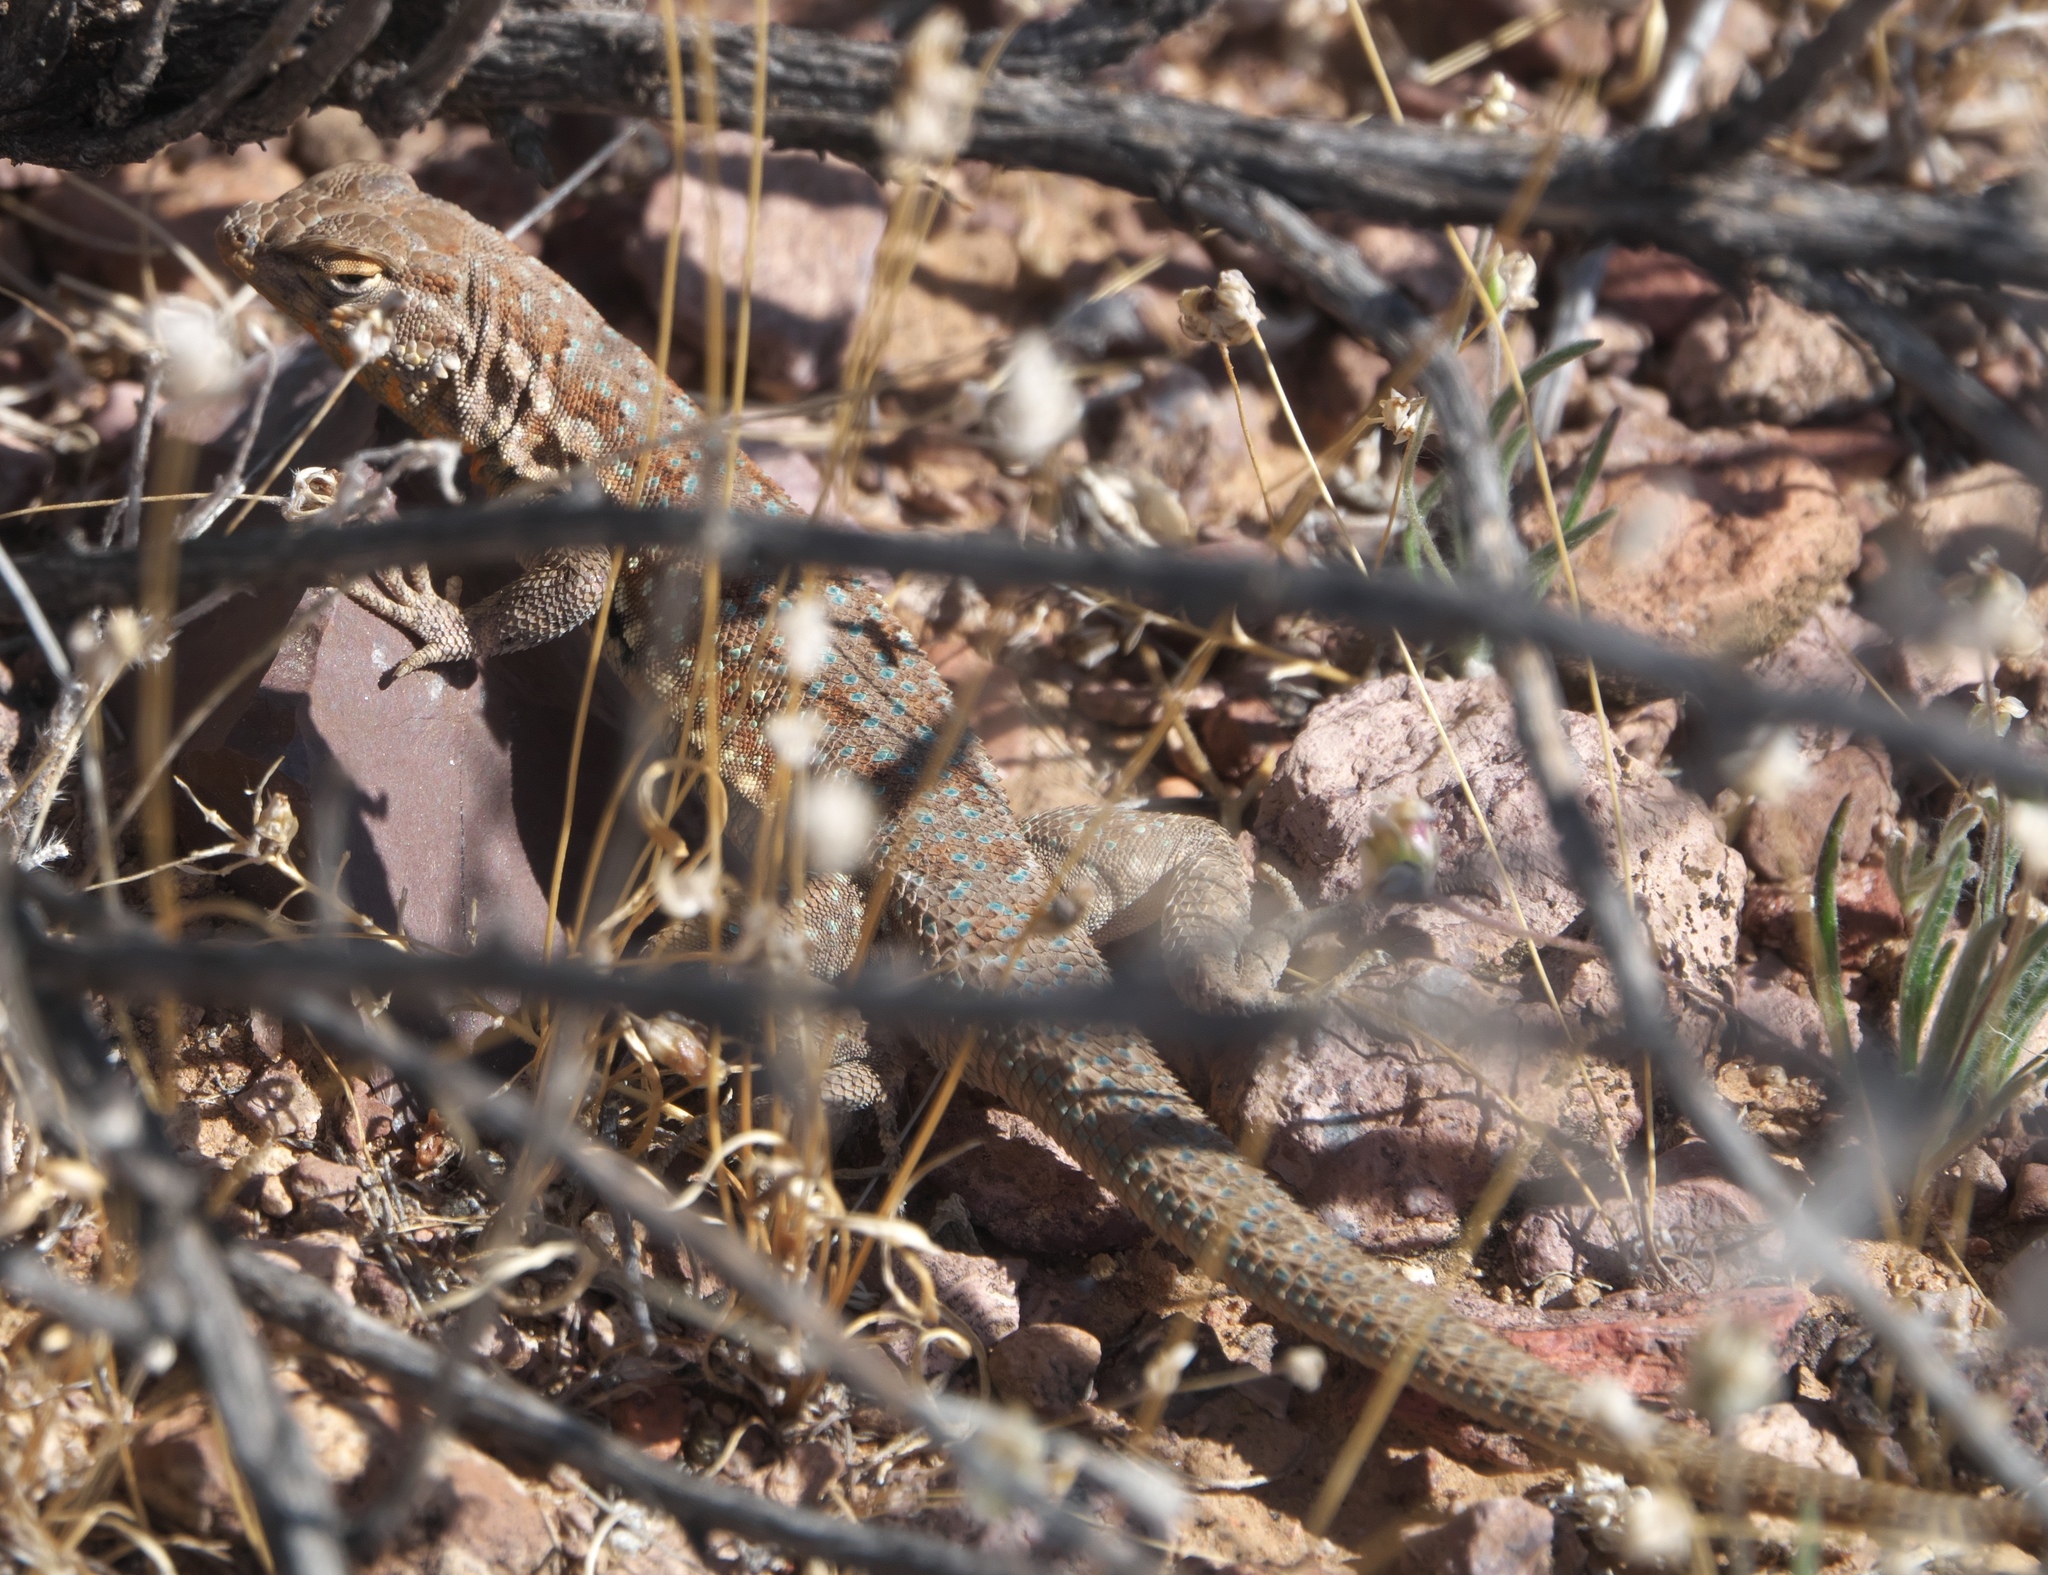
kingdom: Animalia
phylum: Chordata
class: Squamata
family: Phrynosomatidae
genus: Uta
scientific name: Uta stansburiana
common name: Side-blotched lizard
